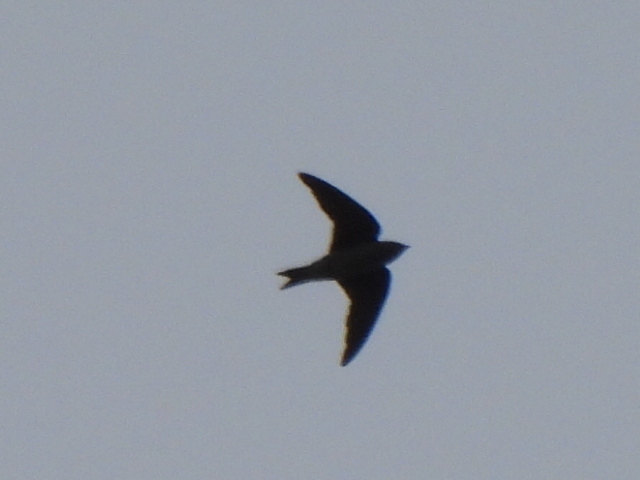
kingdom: Animalia
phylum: Chordata
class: Aves
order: Passeriformes
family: Hirundinidae
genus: Progne
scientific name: Progne subis
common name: Purple martin
